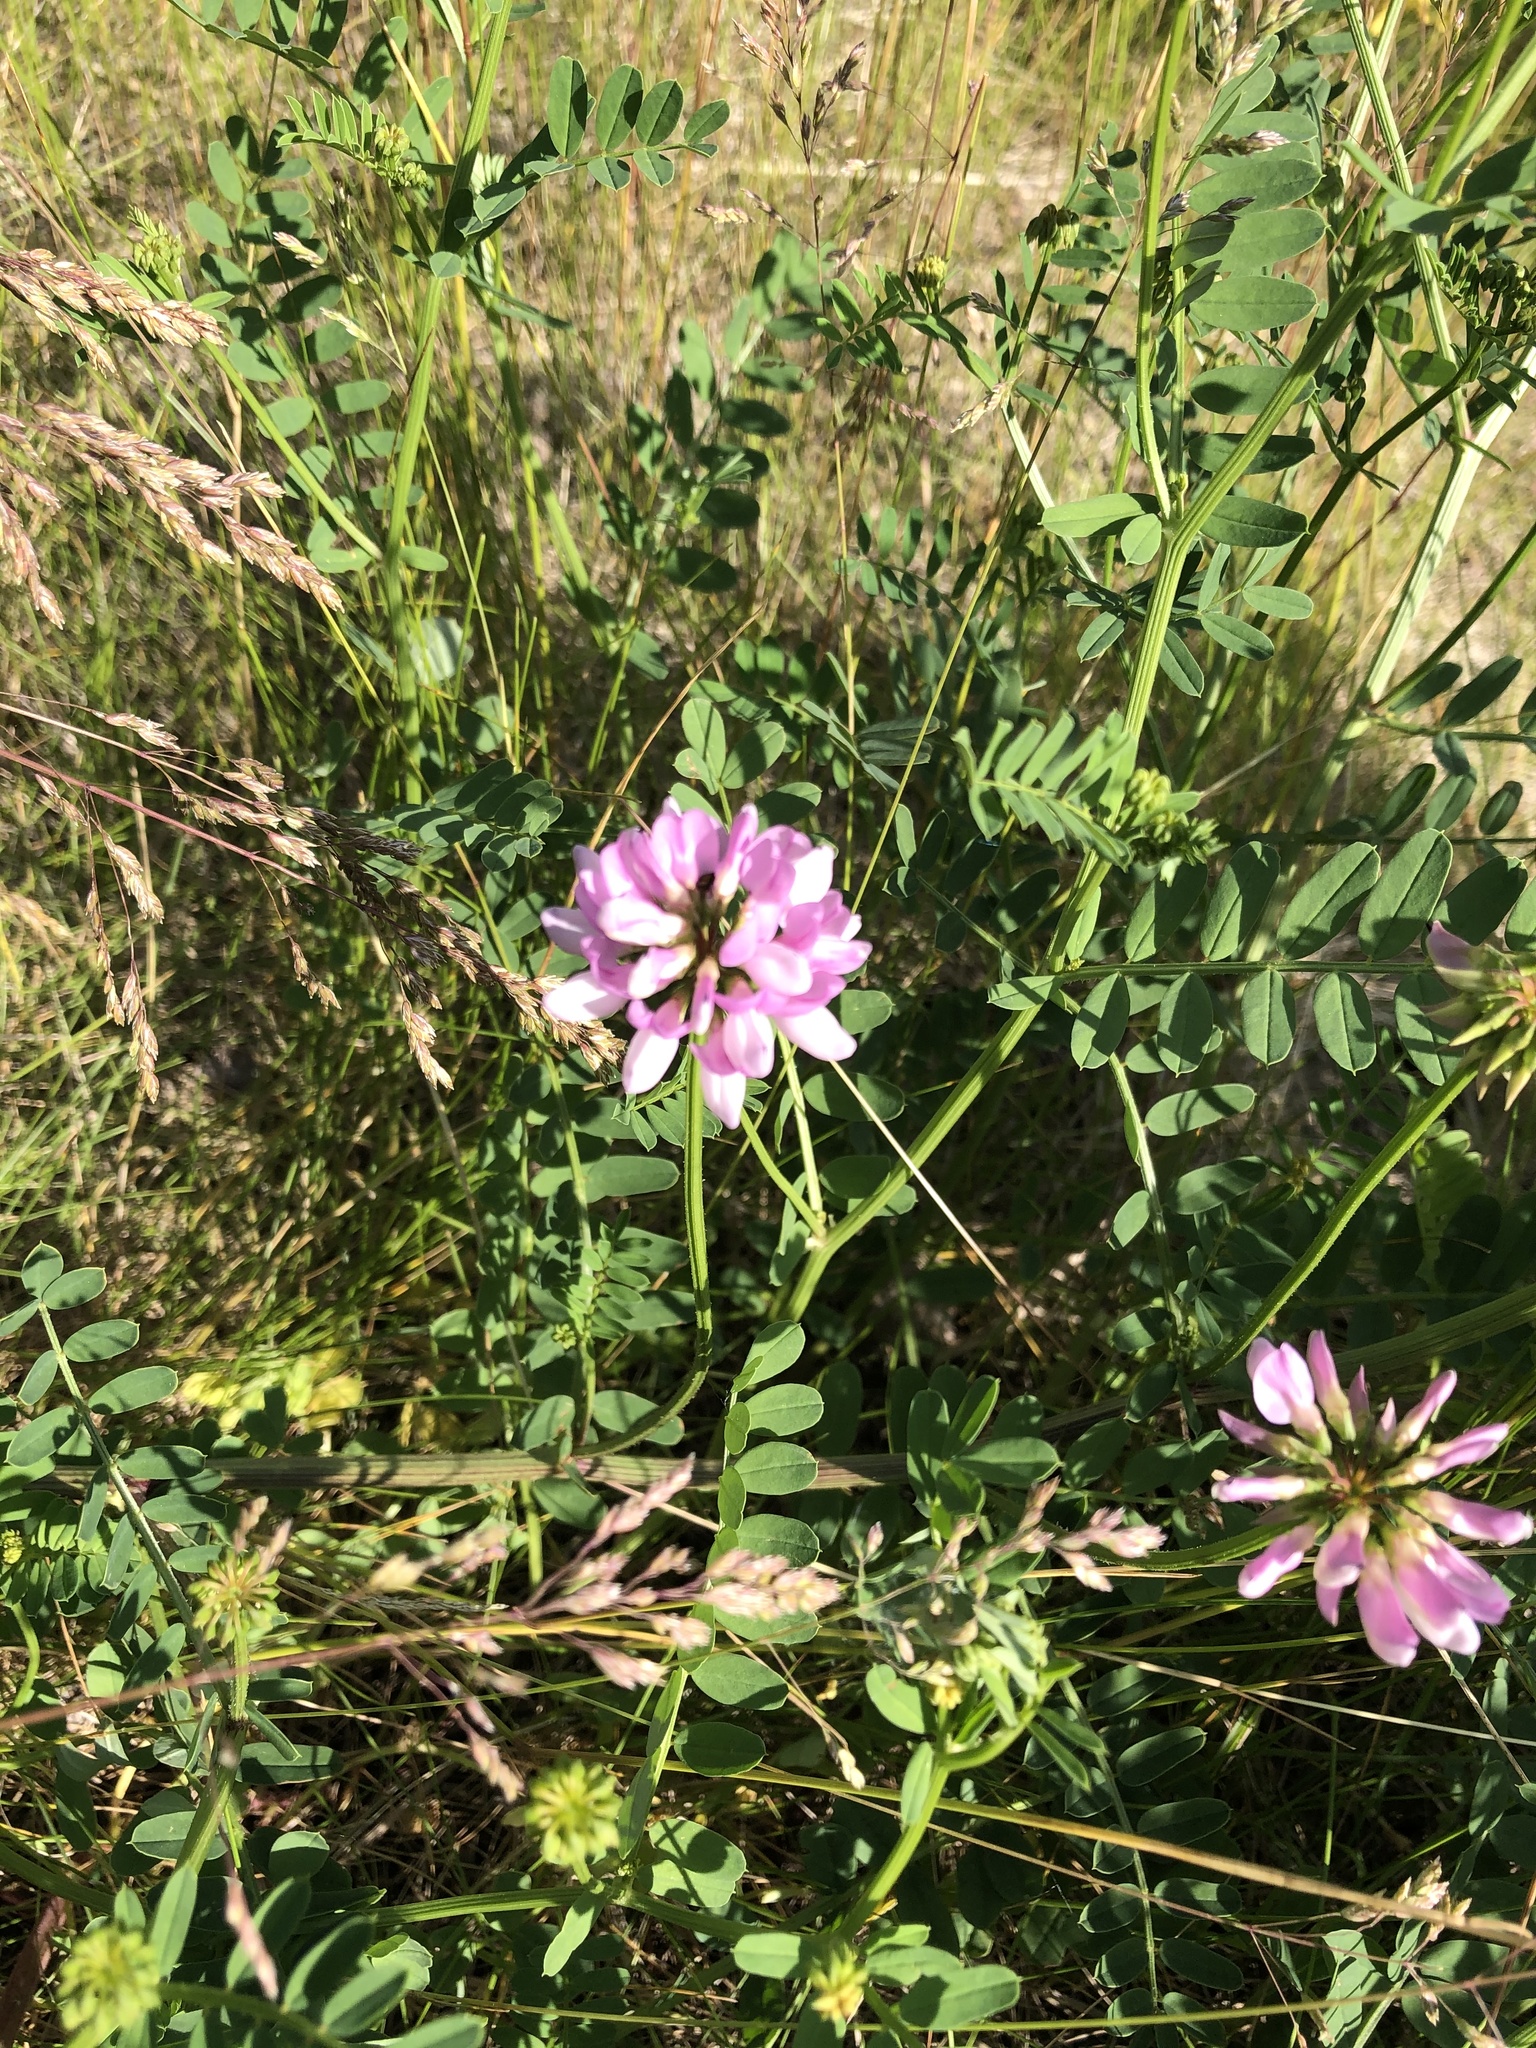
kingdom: Plantae
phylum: Tracheophyta
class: Magnoliopsida
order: Fabales
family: Fabaceae
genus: Coronilla
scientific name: Coronilla varia
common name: Crownvetch
